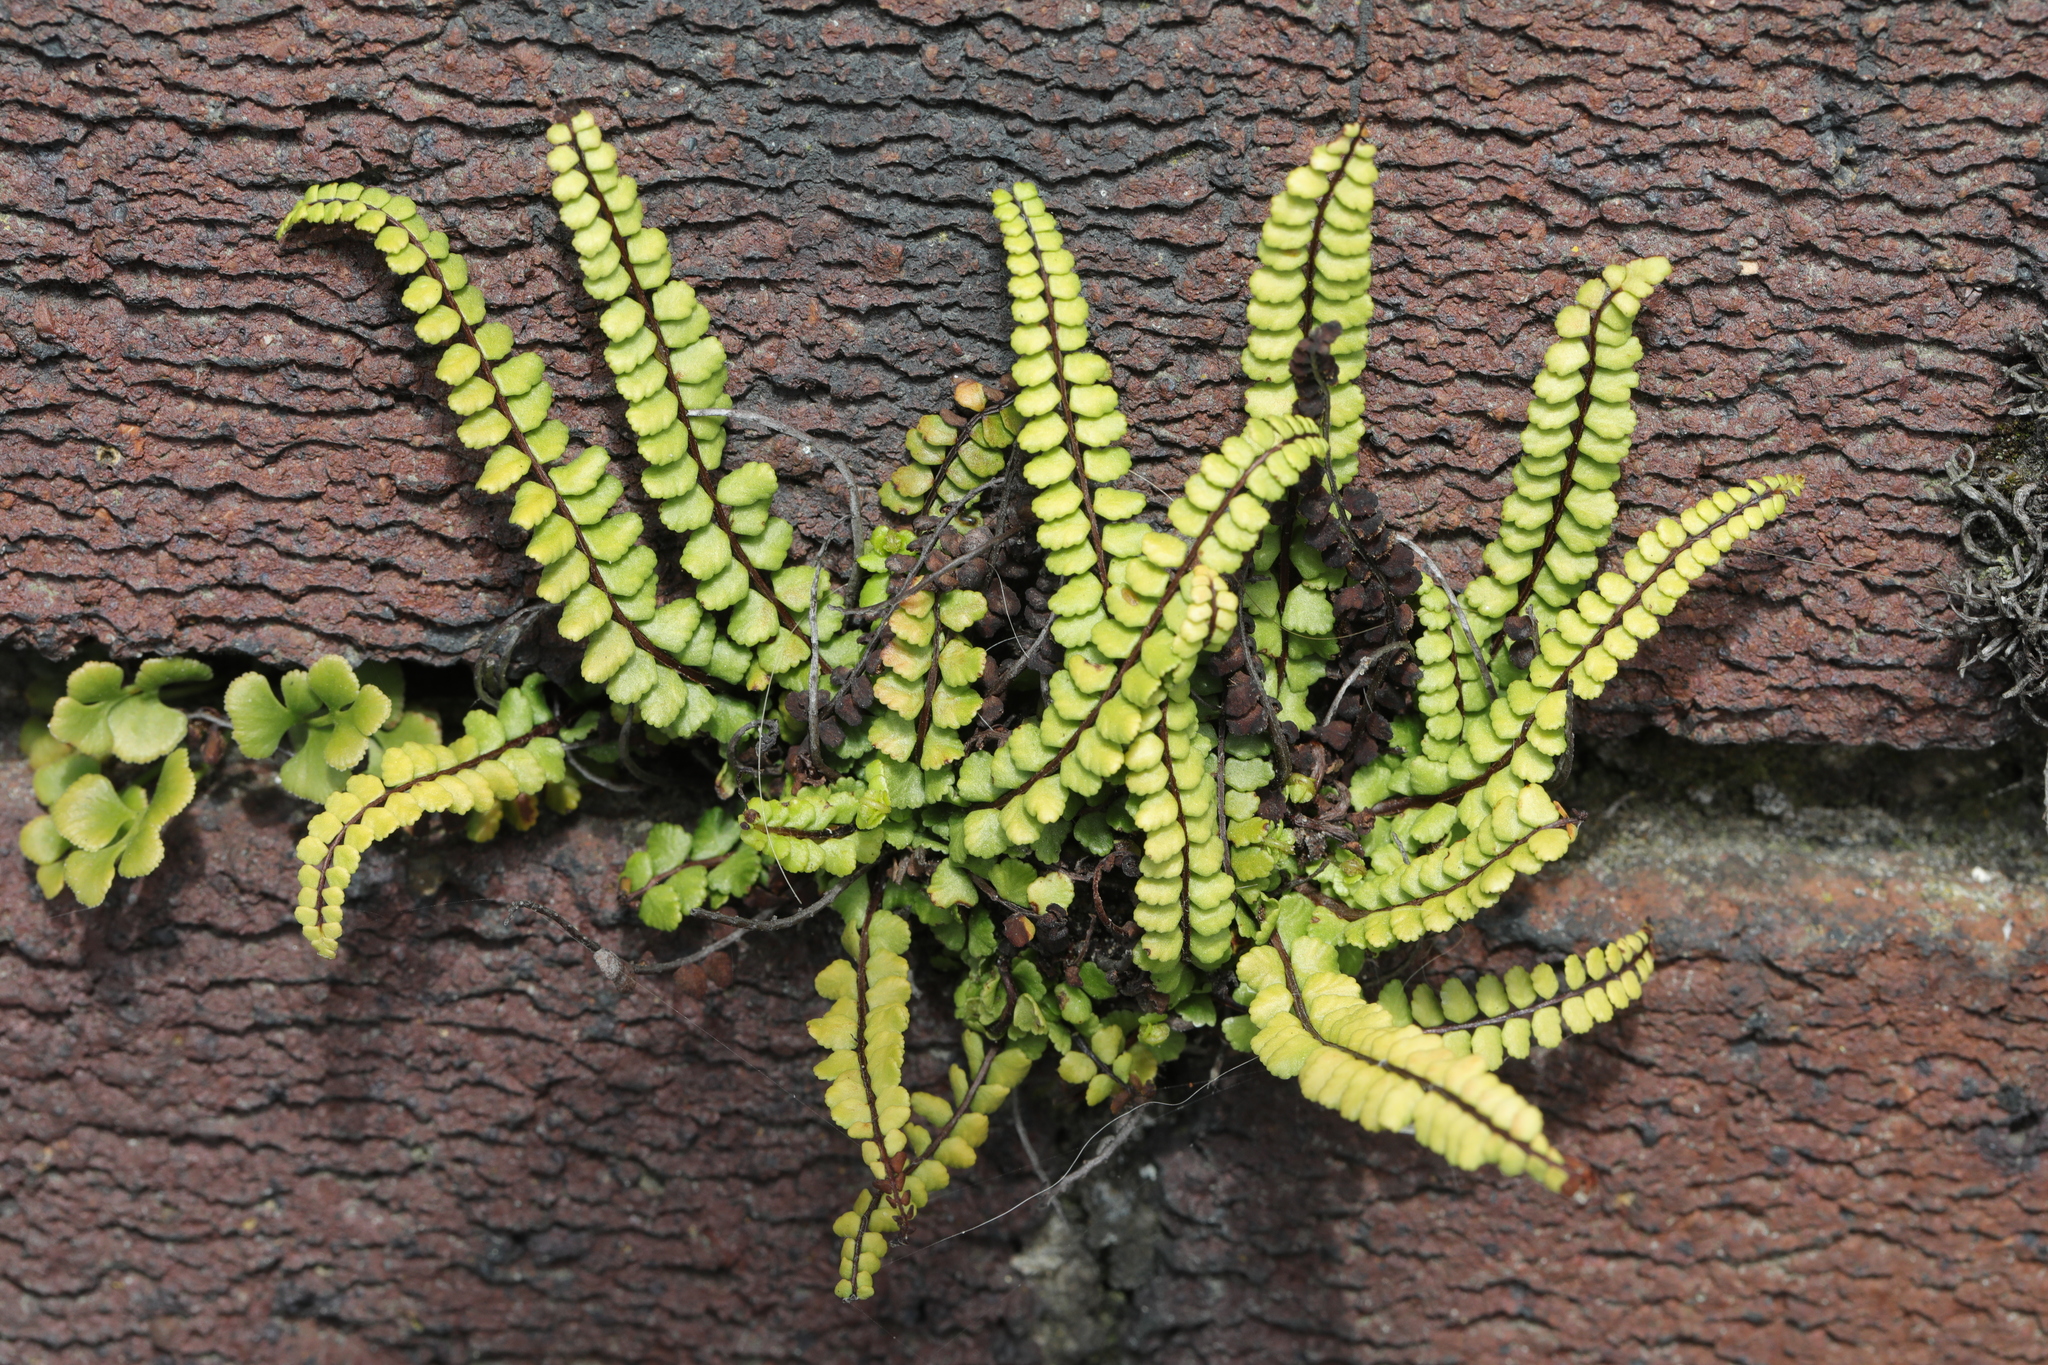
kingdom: Plantae
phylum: Tracheophyta
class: Polypodiopsida
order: Polypodiales
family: Aspleniaceae
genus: Asplenium
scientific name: Asplenium trichomanes
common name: Maidenhair spleenwort
